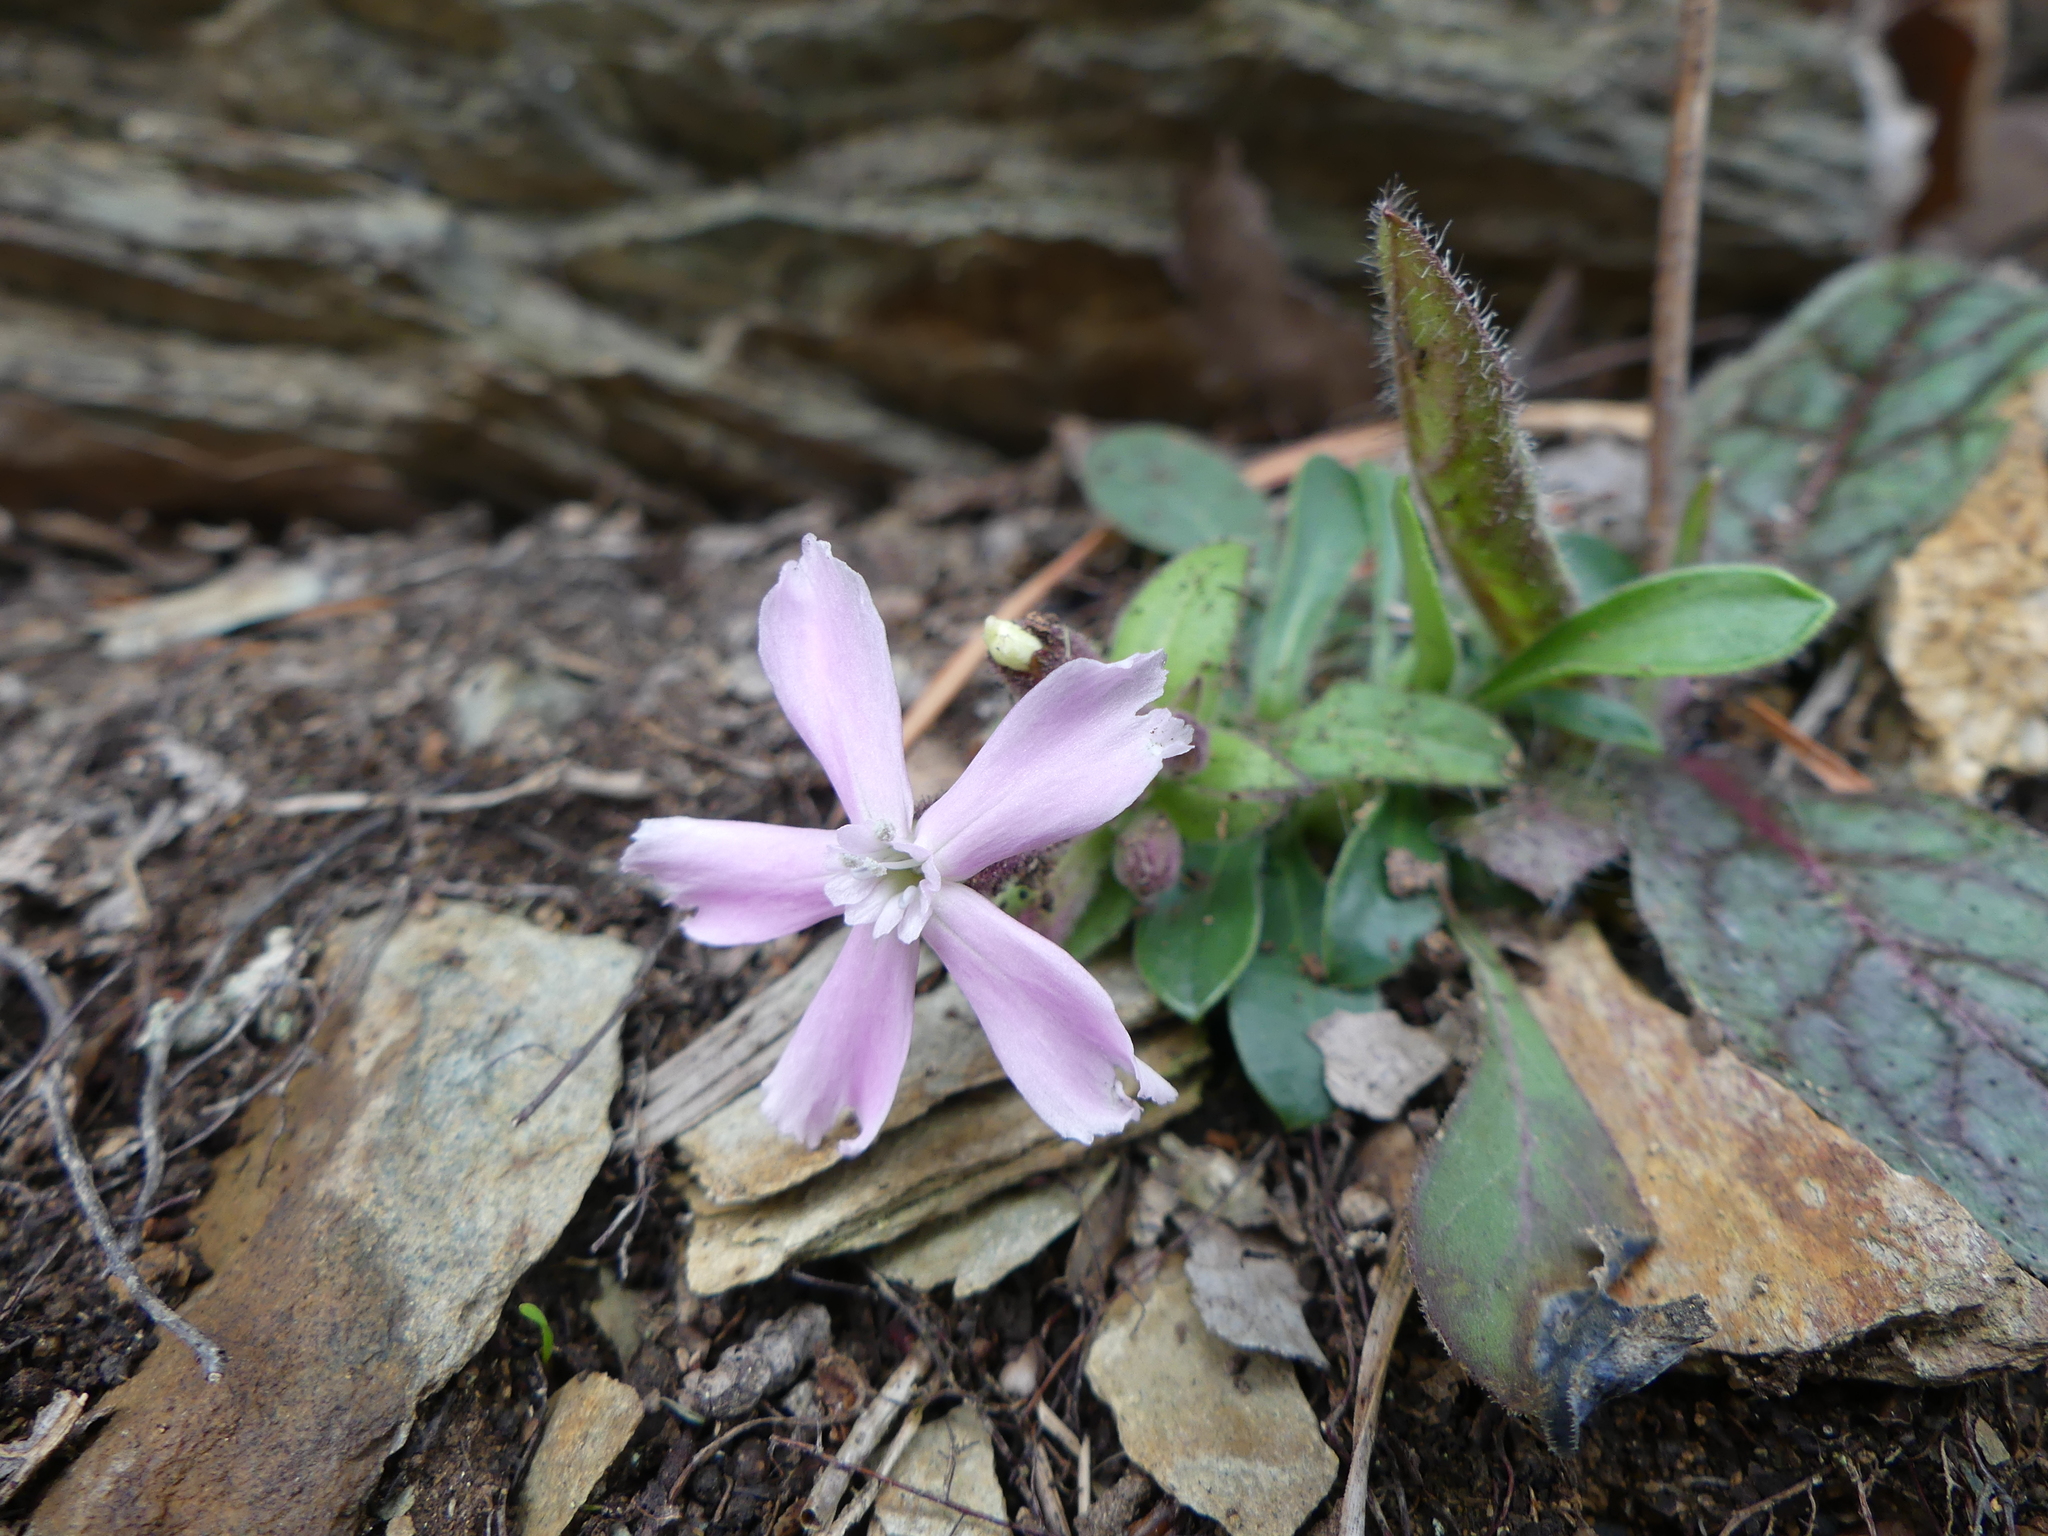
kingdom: Plantae
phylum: Tracheophyta
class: Magnoliopsida
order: Caryophyllales
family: Caryophyllaceae
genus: Silene
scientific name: Silene caroliniana
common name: Sticky catchfly
